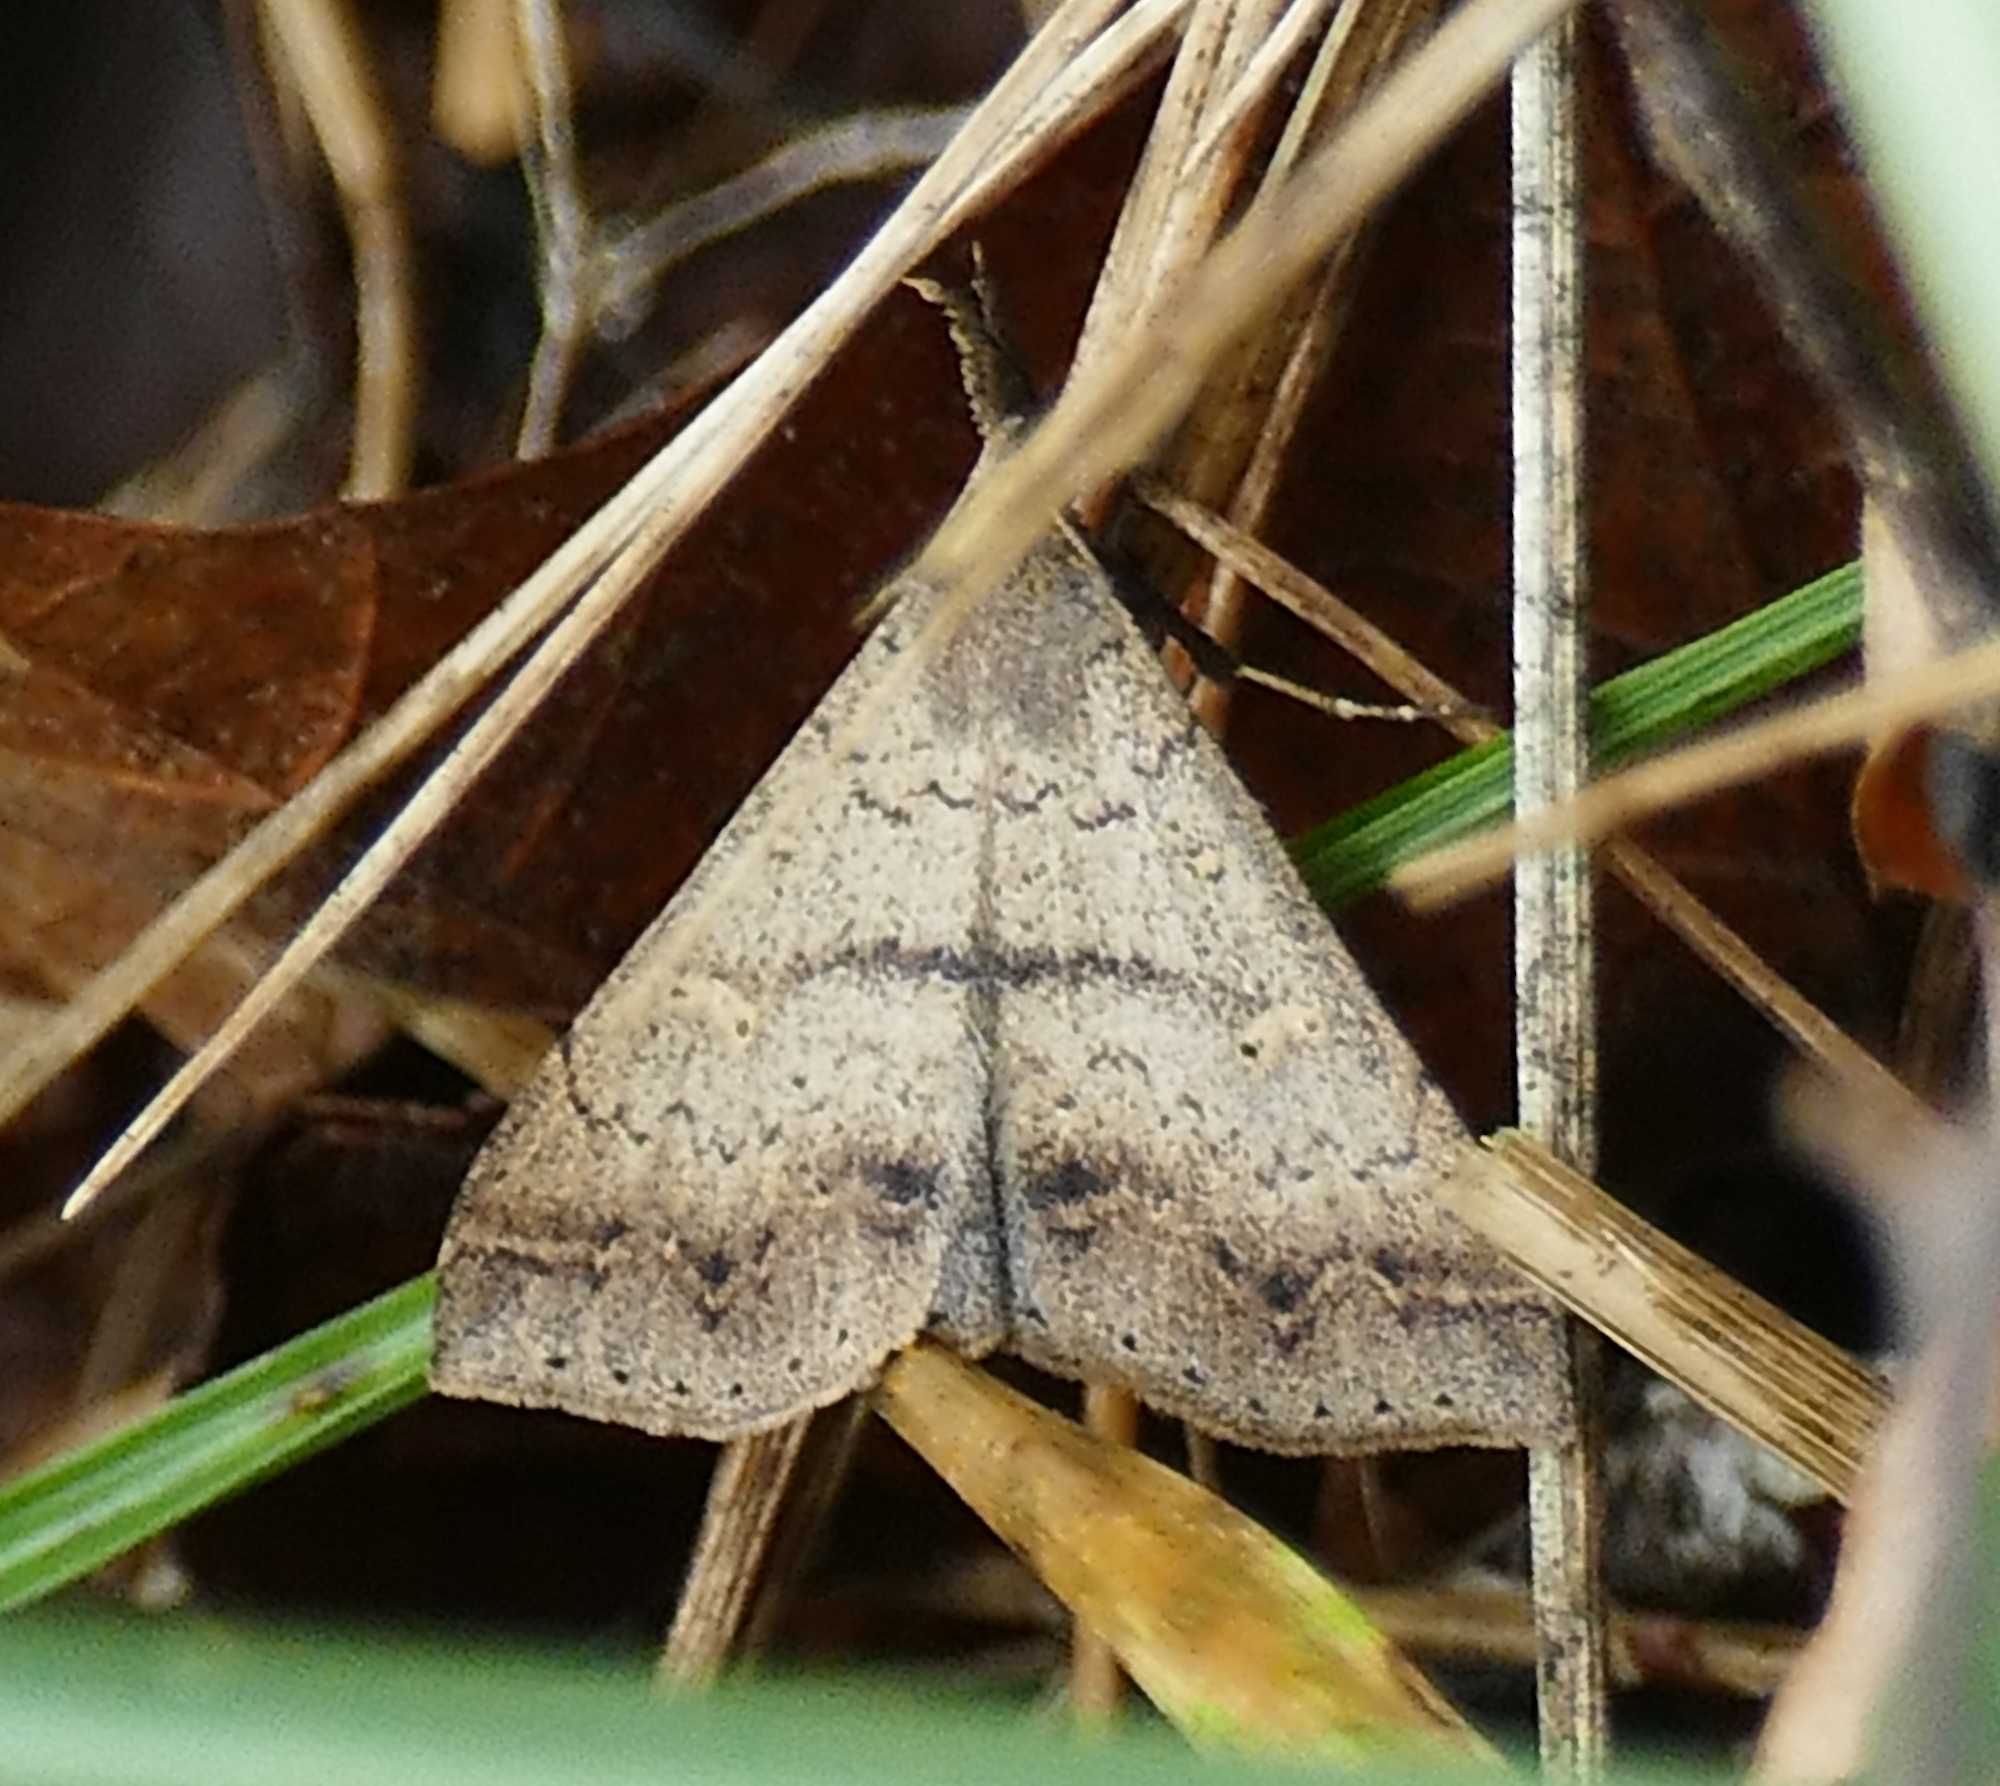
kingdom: Animalia
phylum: Arthropoda
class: Insecta
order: Lepidoptera
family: Erebidae
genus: Renia
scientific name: Renia discoloralis
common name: Discolored renia moth
